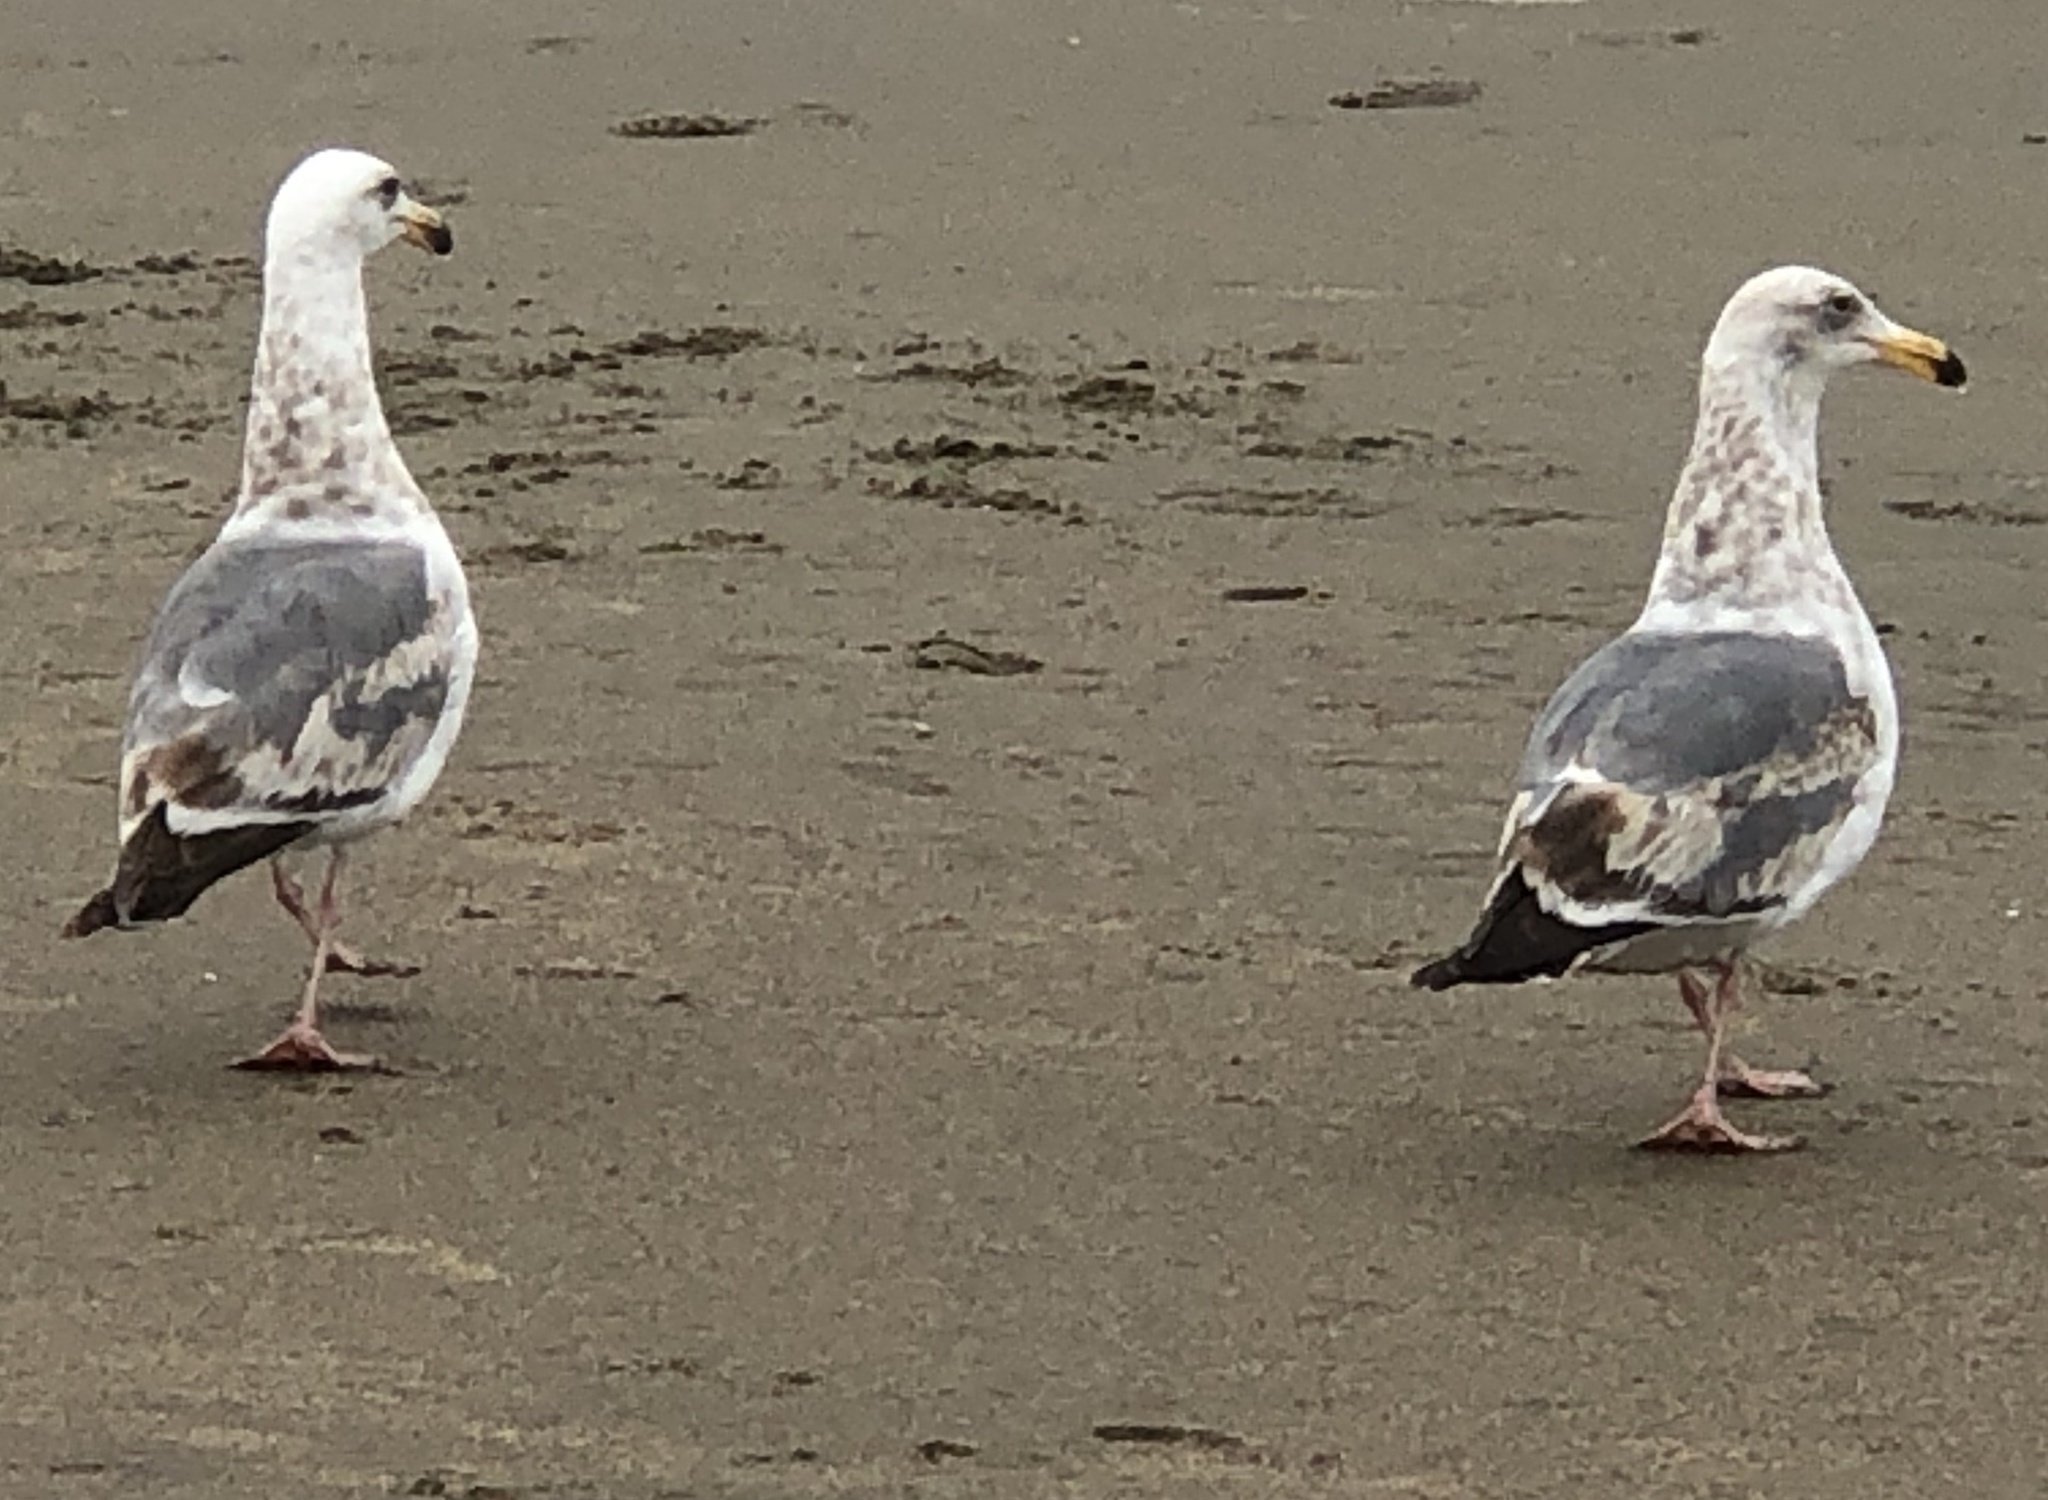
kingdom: Animalia
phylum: Chordata
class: Aves
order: Charadriiformes
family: Laridae
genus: Larus
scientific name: Larus occidentalis
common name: Western gull
